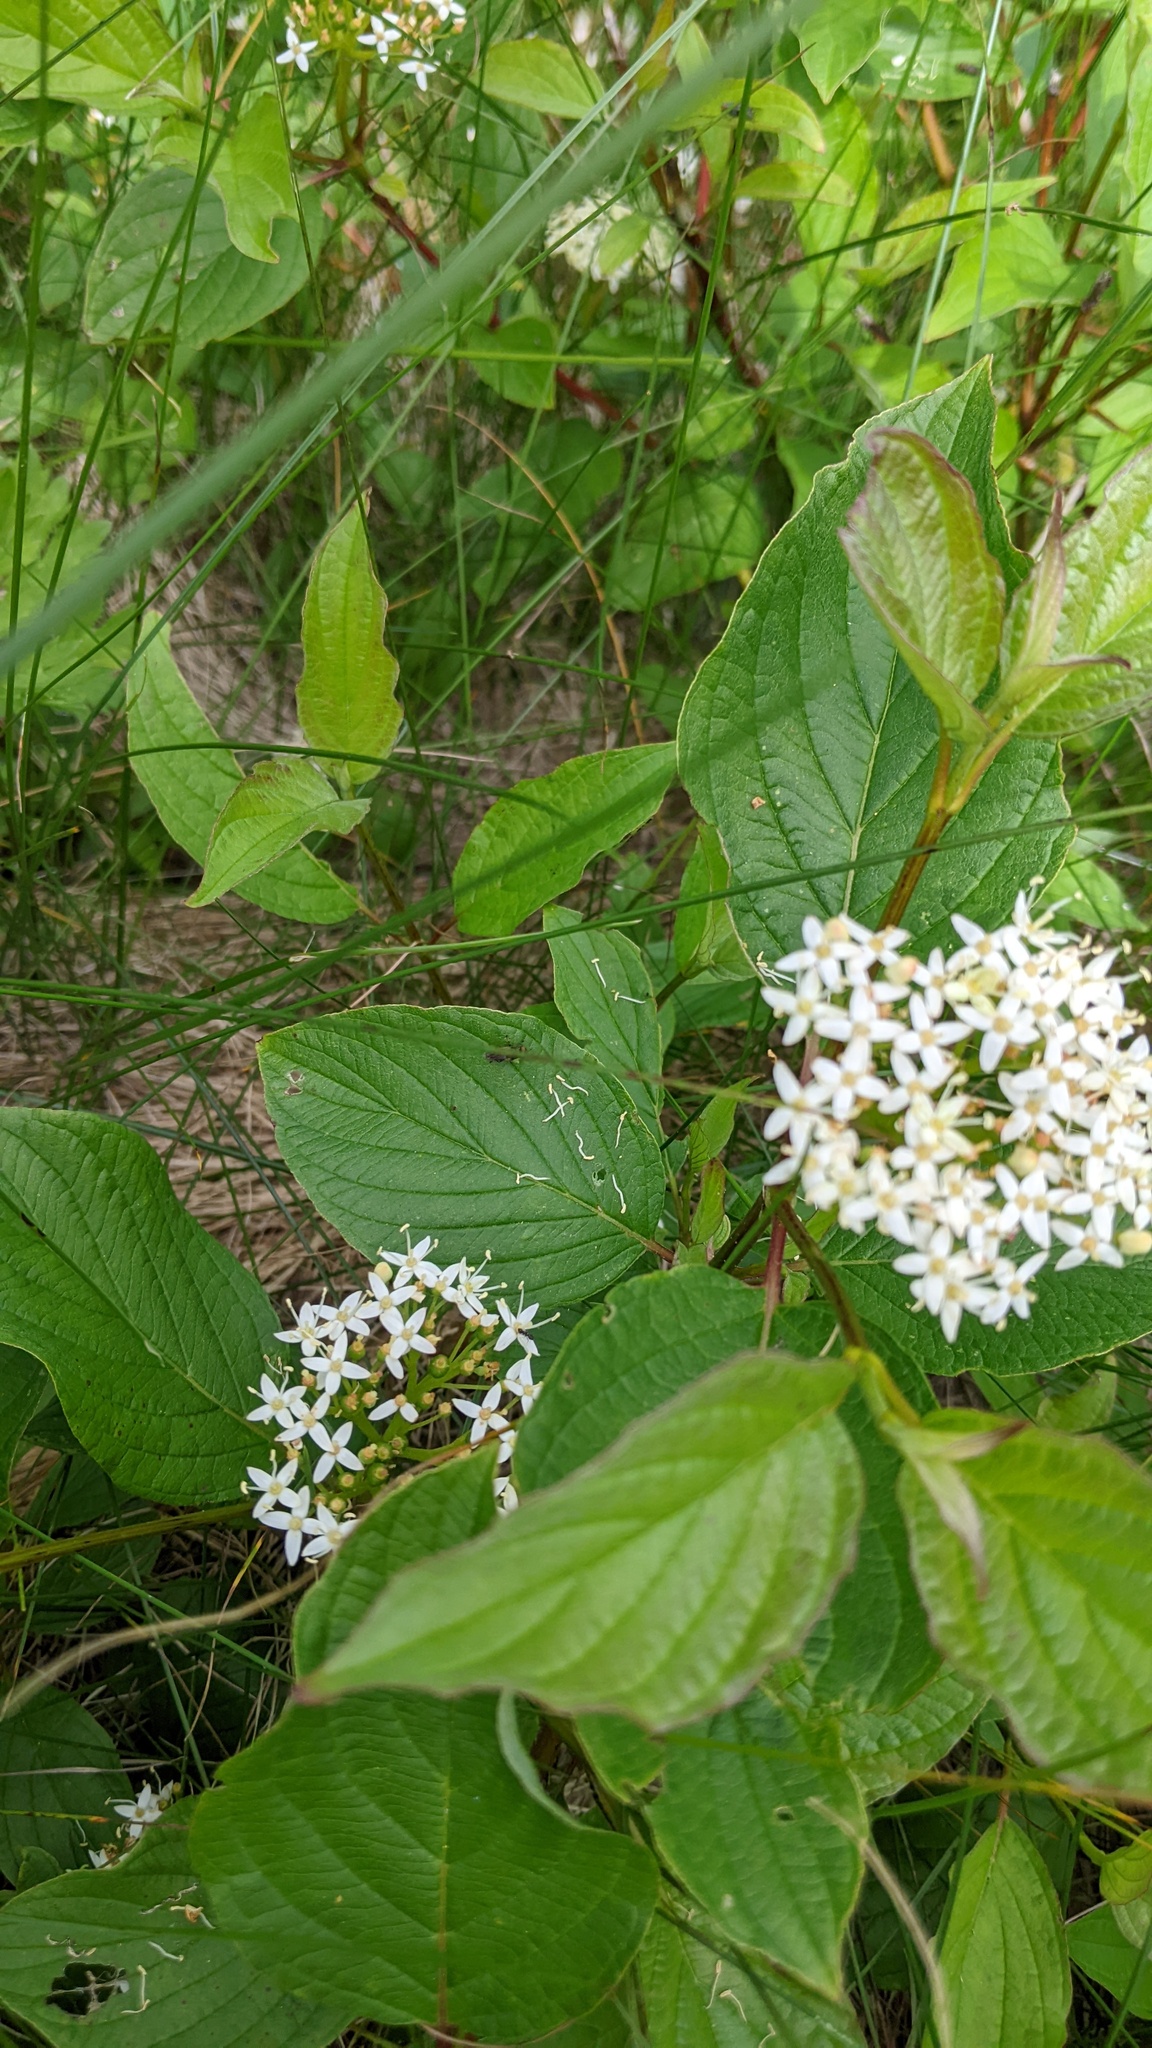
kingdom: Plantae
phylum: Tracheophyta
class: Magnoliopsida
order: Cornales
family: Cornaceae
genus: Cornus
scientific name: Cornus sericea
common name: Red-osier dogwood
